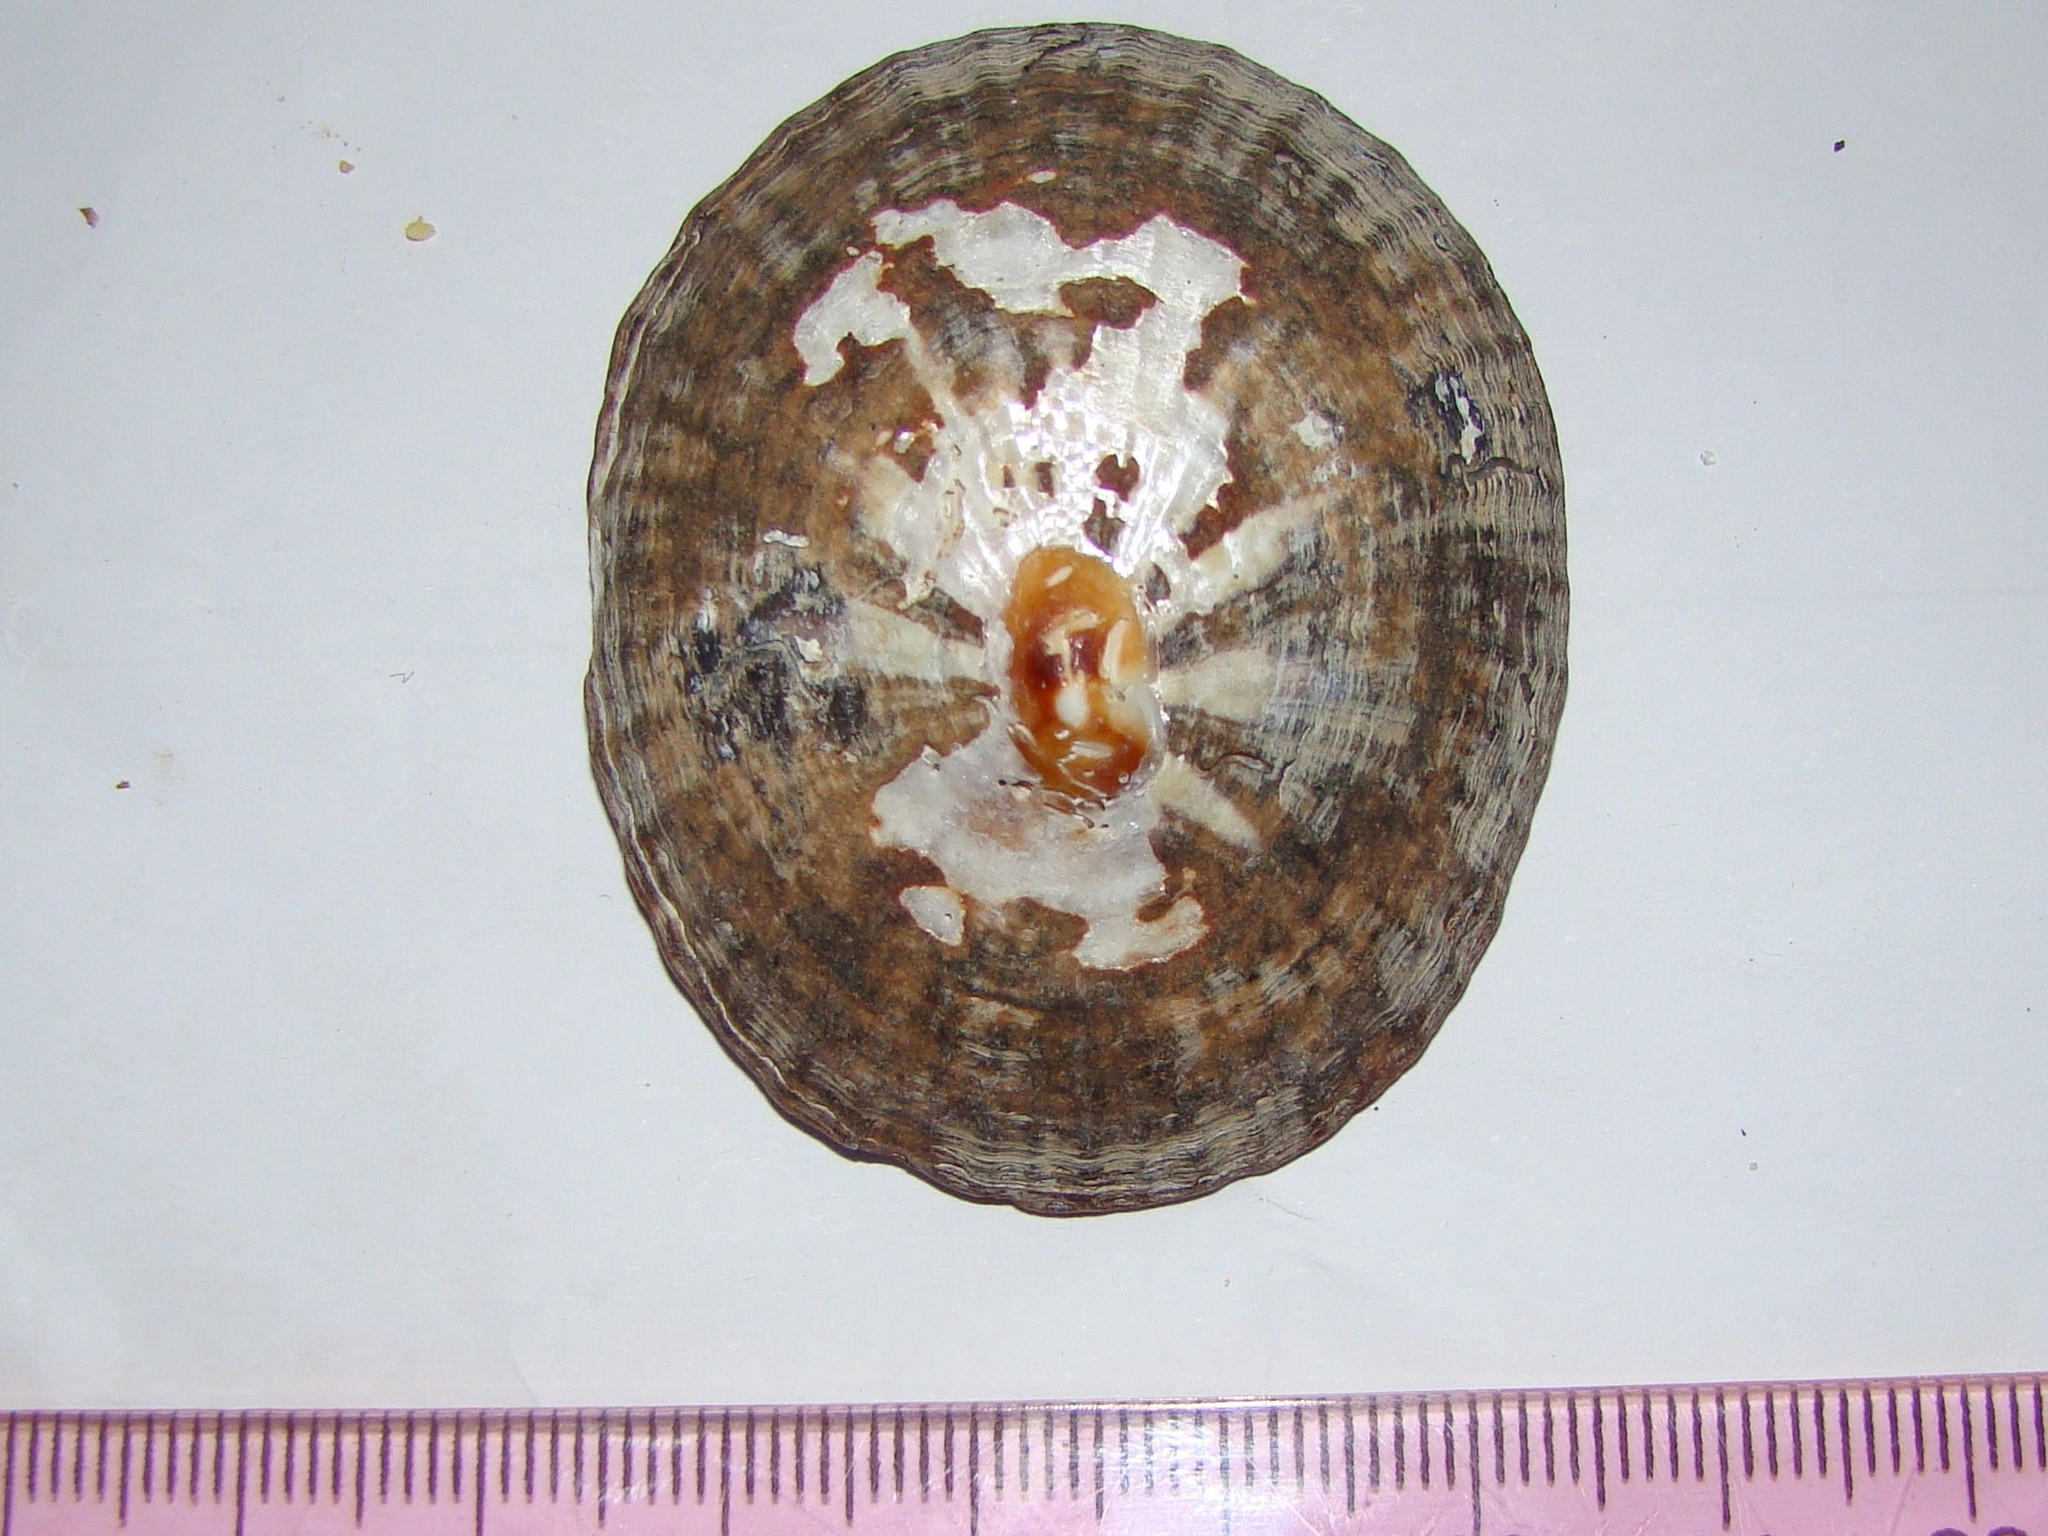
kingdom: Animalia
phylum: Mollusca
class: Gastropoda
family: Nacellidae
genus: Cellana
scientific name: Cellana stellifera
